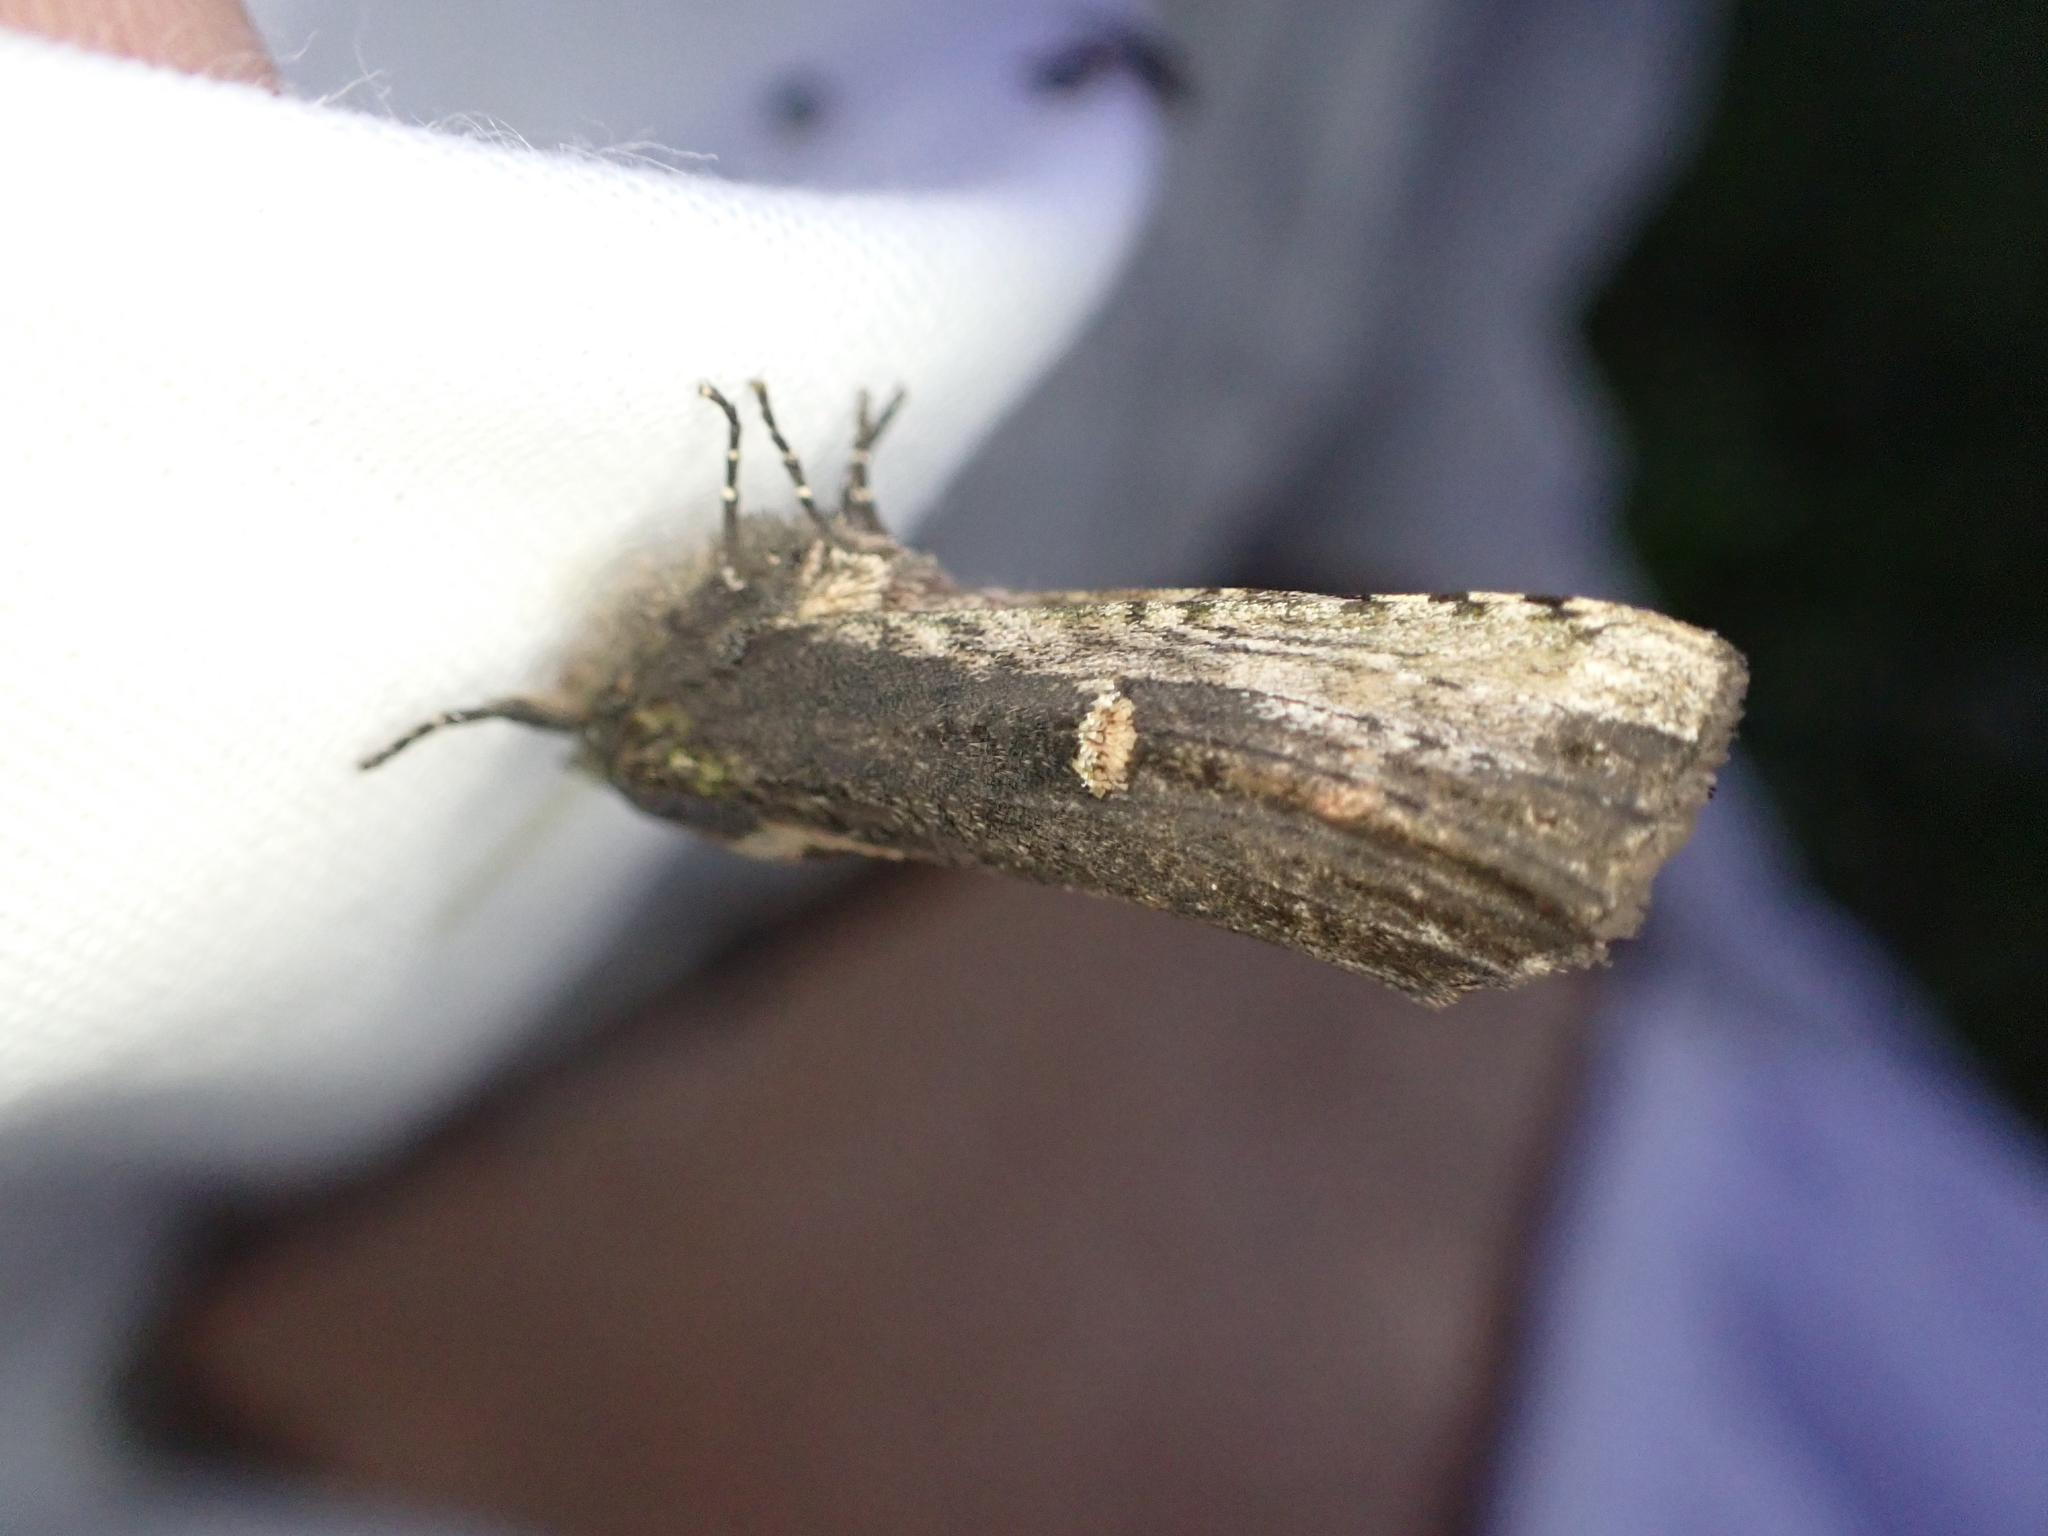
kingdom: Animalia
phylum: Arthropoda
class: Insecta
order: Lepidoptera
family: Notodontidae
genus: Schizura
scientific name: Schizura ipomaeae
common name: Morning-glory prominent
